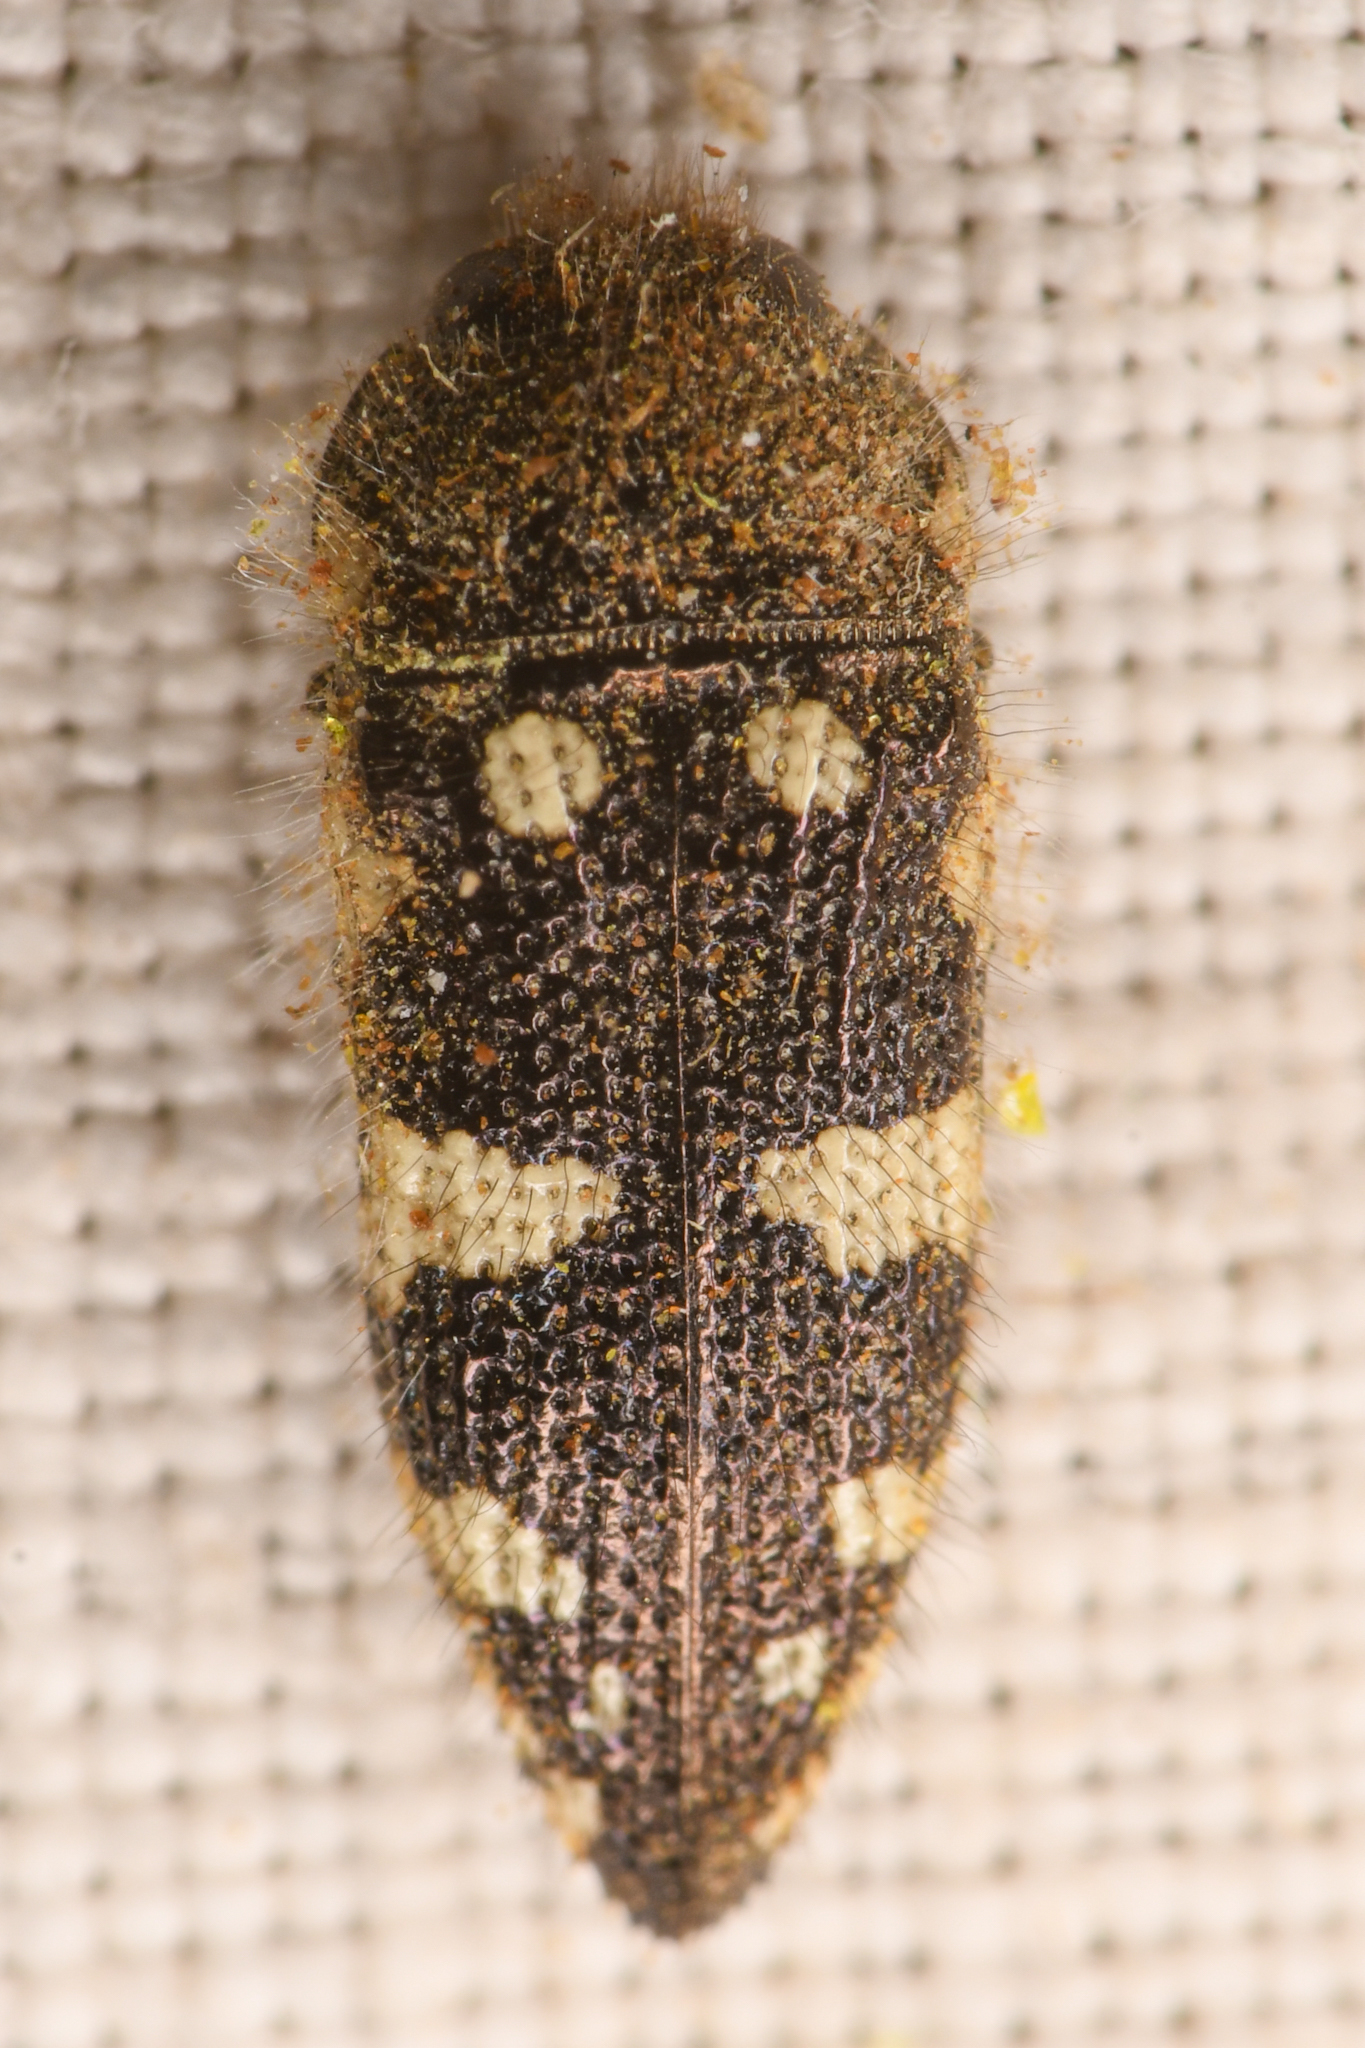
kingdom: Animalia
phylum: Arthropoda
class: Insecta
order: Coleoptera
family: Buprestidae
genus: Acmaeodera
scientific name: Acmaeodera vernalis
